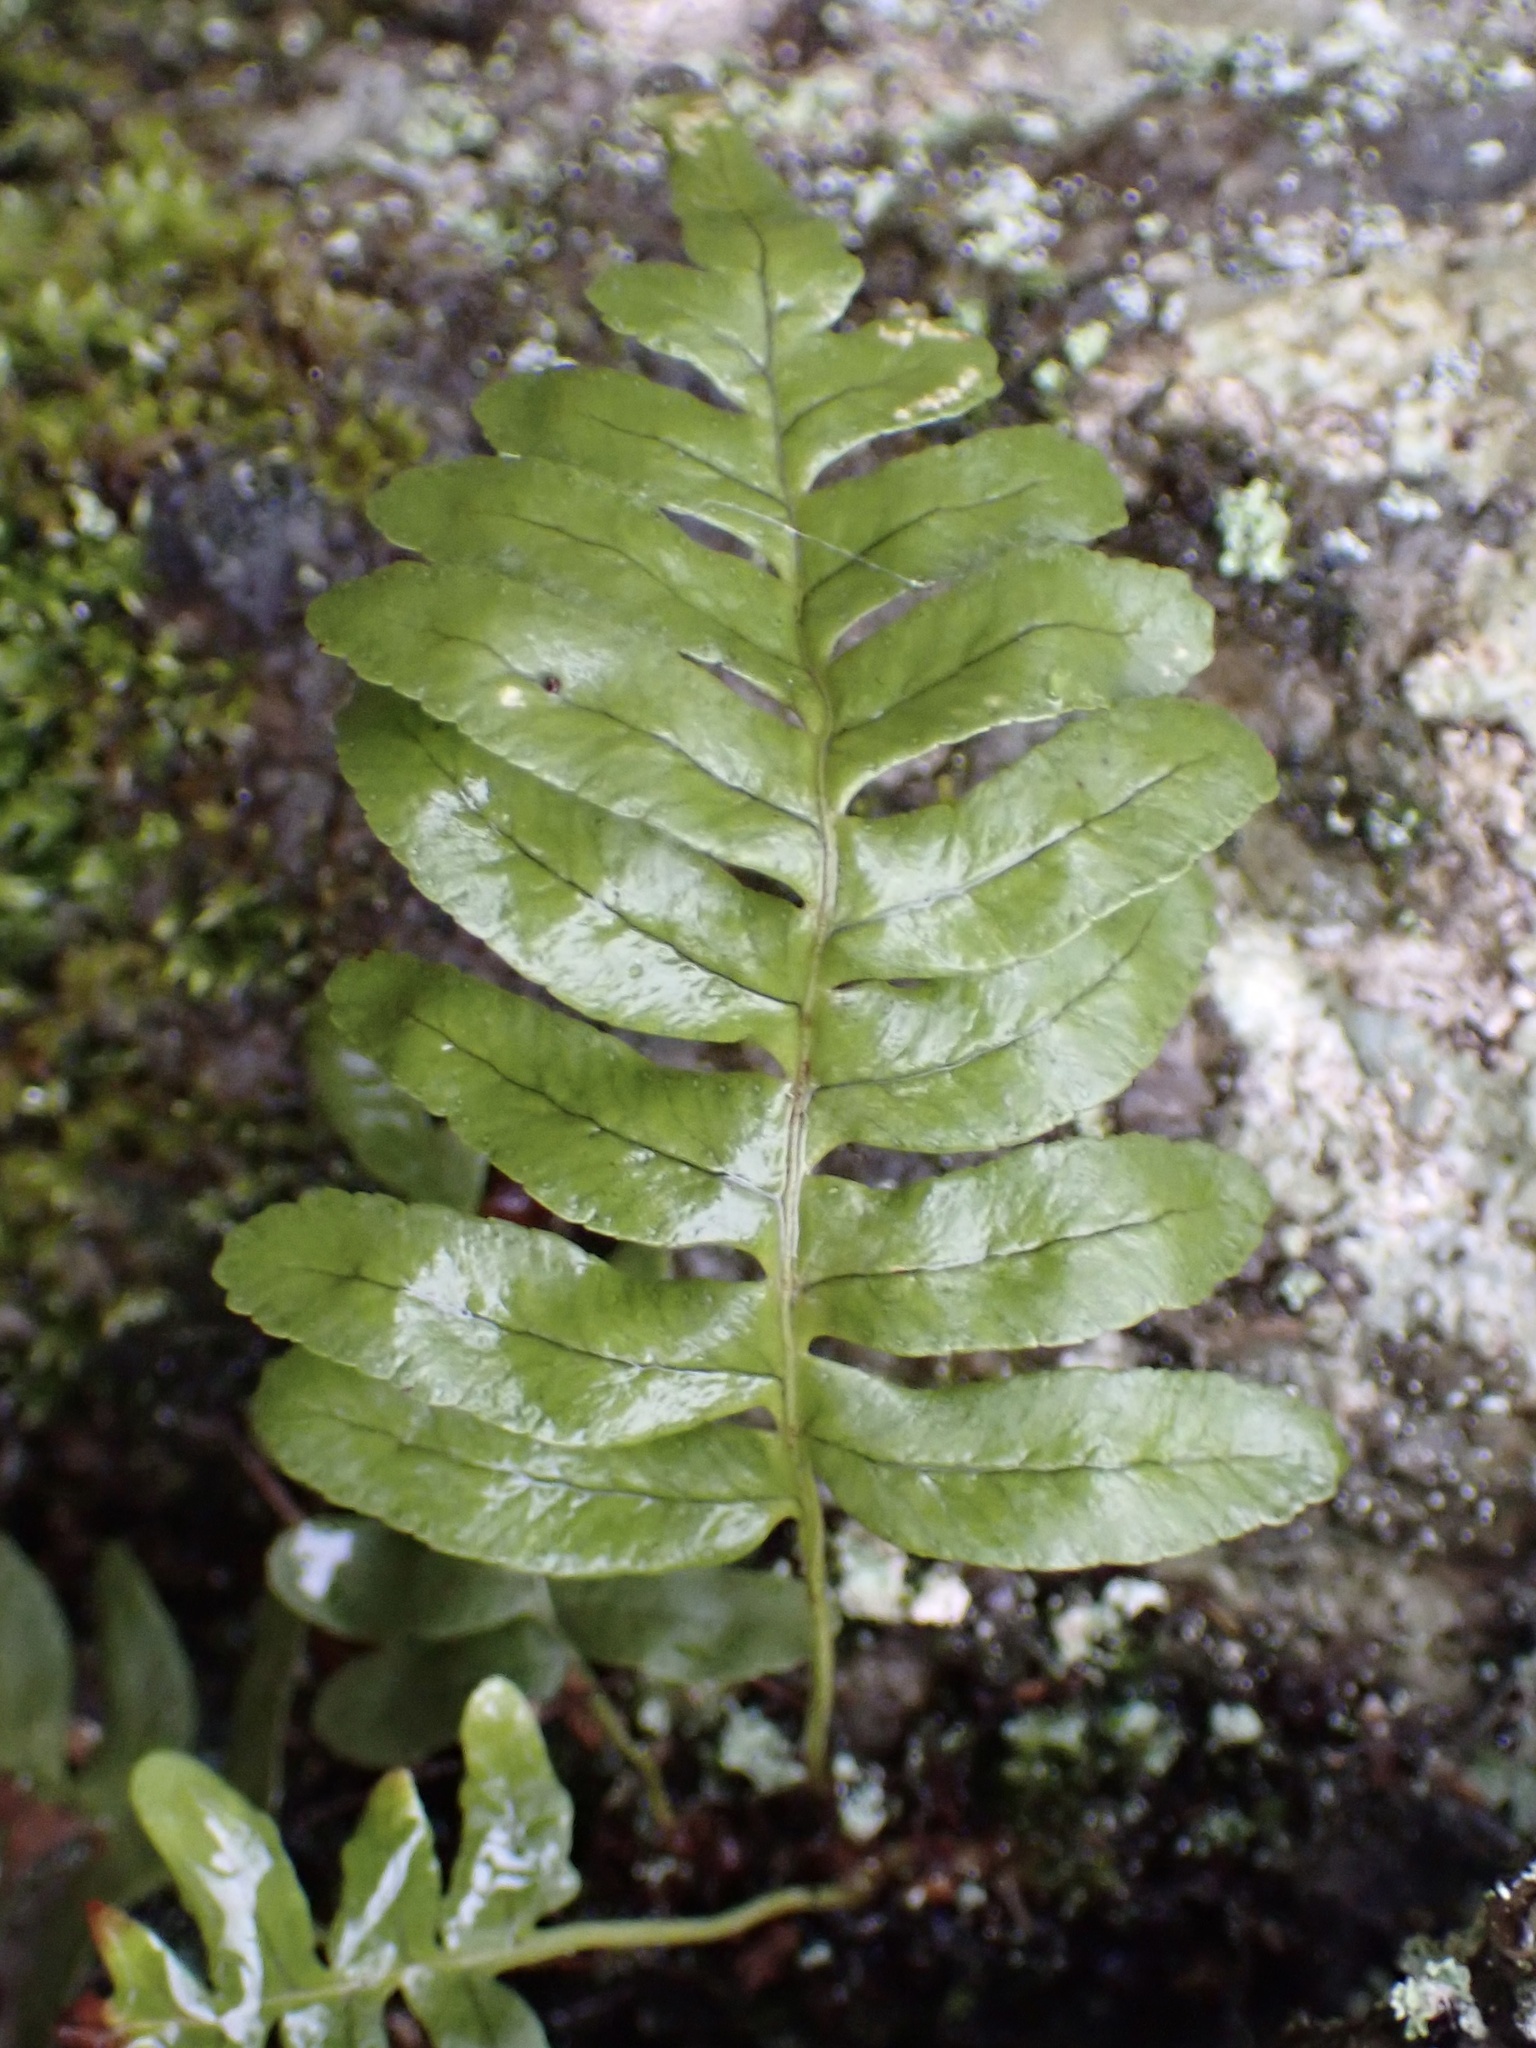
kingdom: Plantae
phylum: Tracheophyta
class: Polypodiopsida
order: Polypodiales
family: Polypodiaceae
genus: Polypodium
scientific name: Polypodium virginianum
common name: American wall fern
